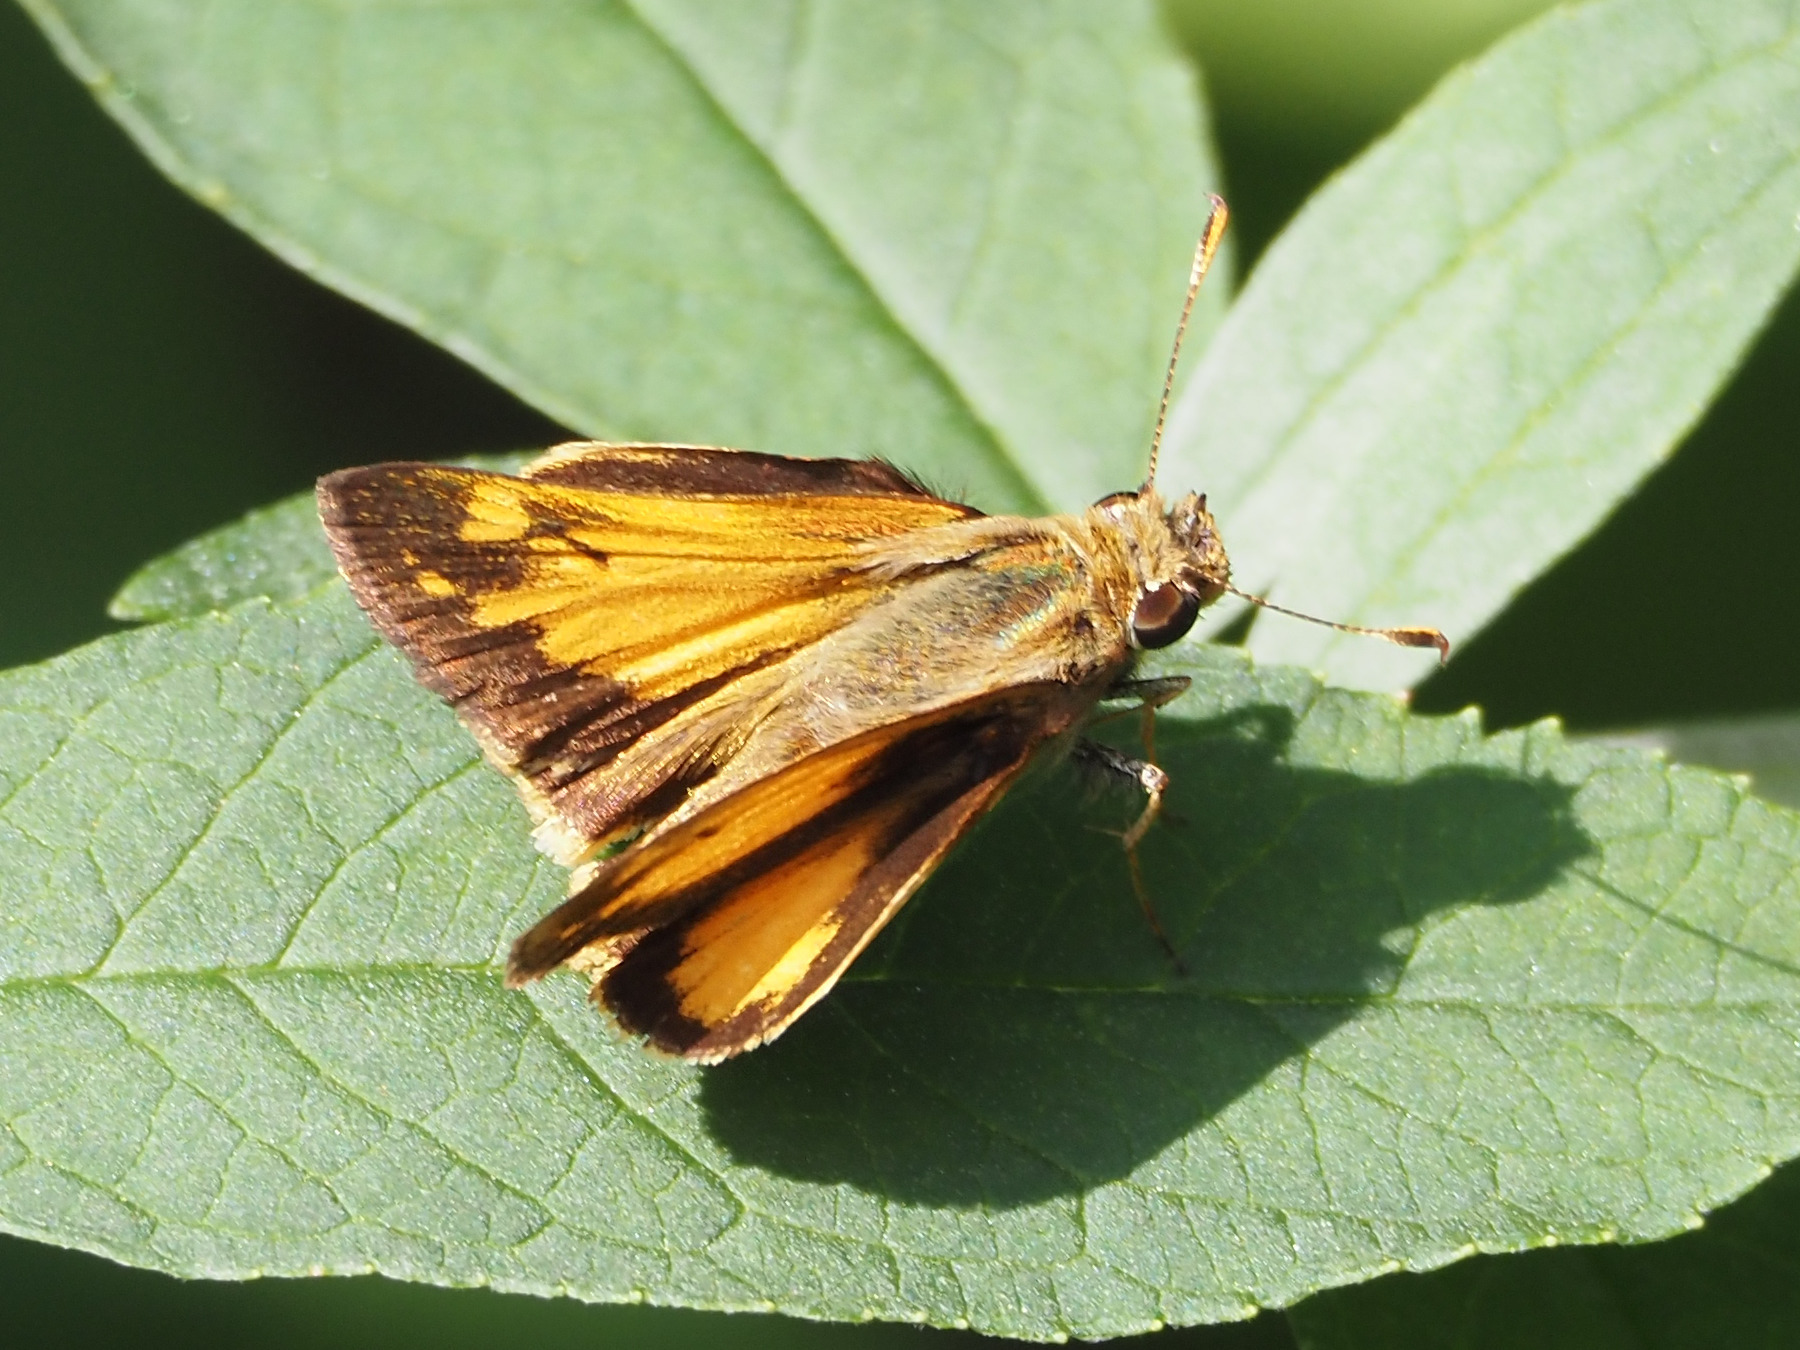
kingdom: Animalia
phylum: Arthropoda
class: Insecta
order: Lepidoptera
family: Hesperiidae
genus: Lon
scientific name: Lon zabulon
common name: Zabulon skipper
